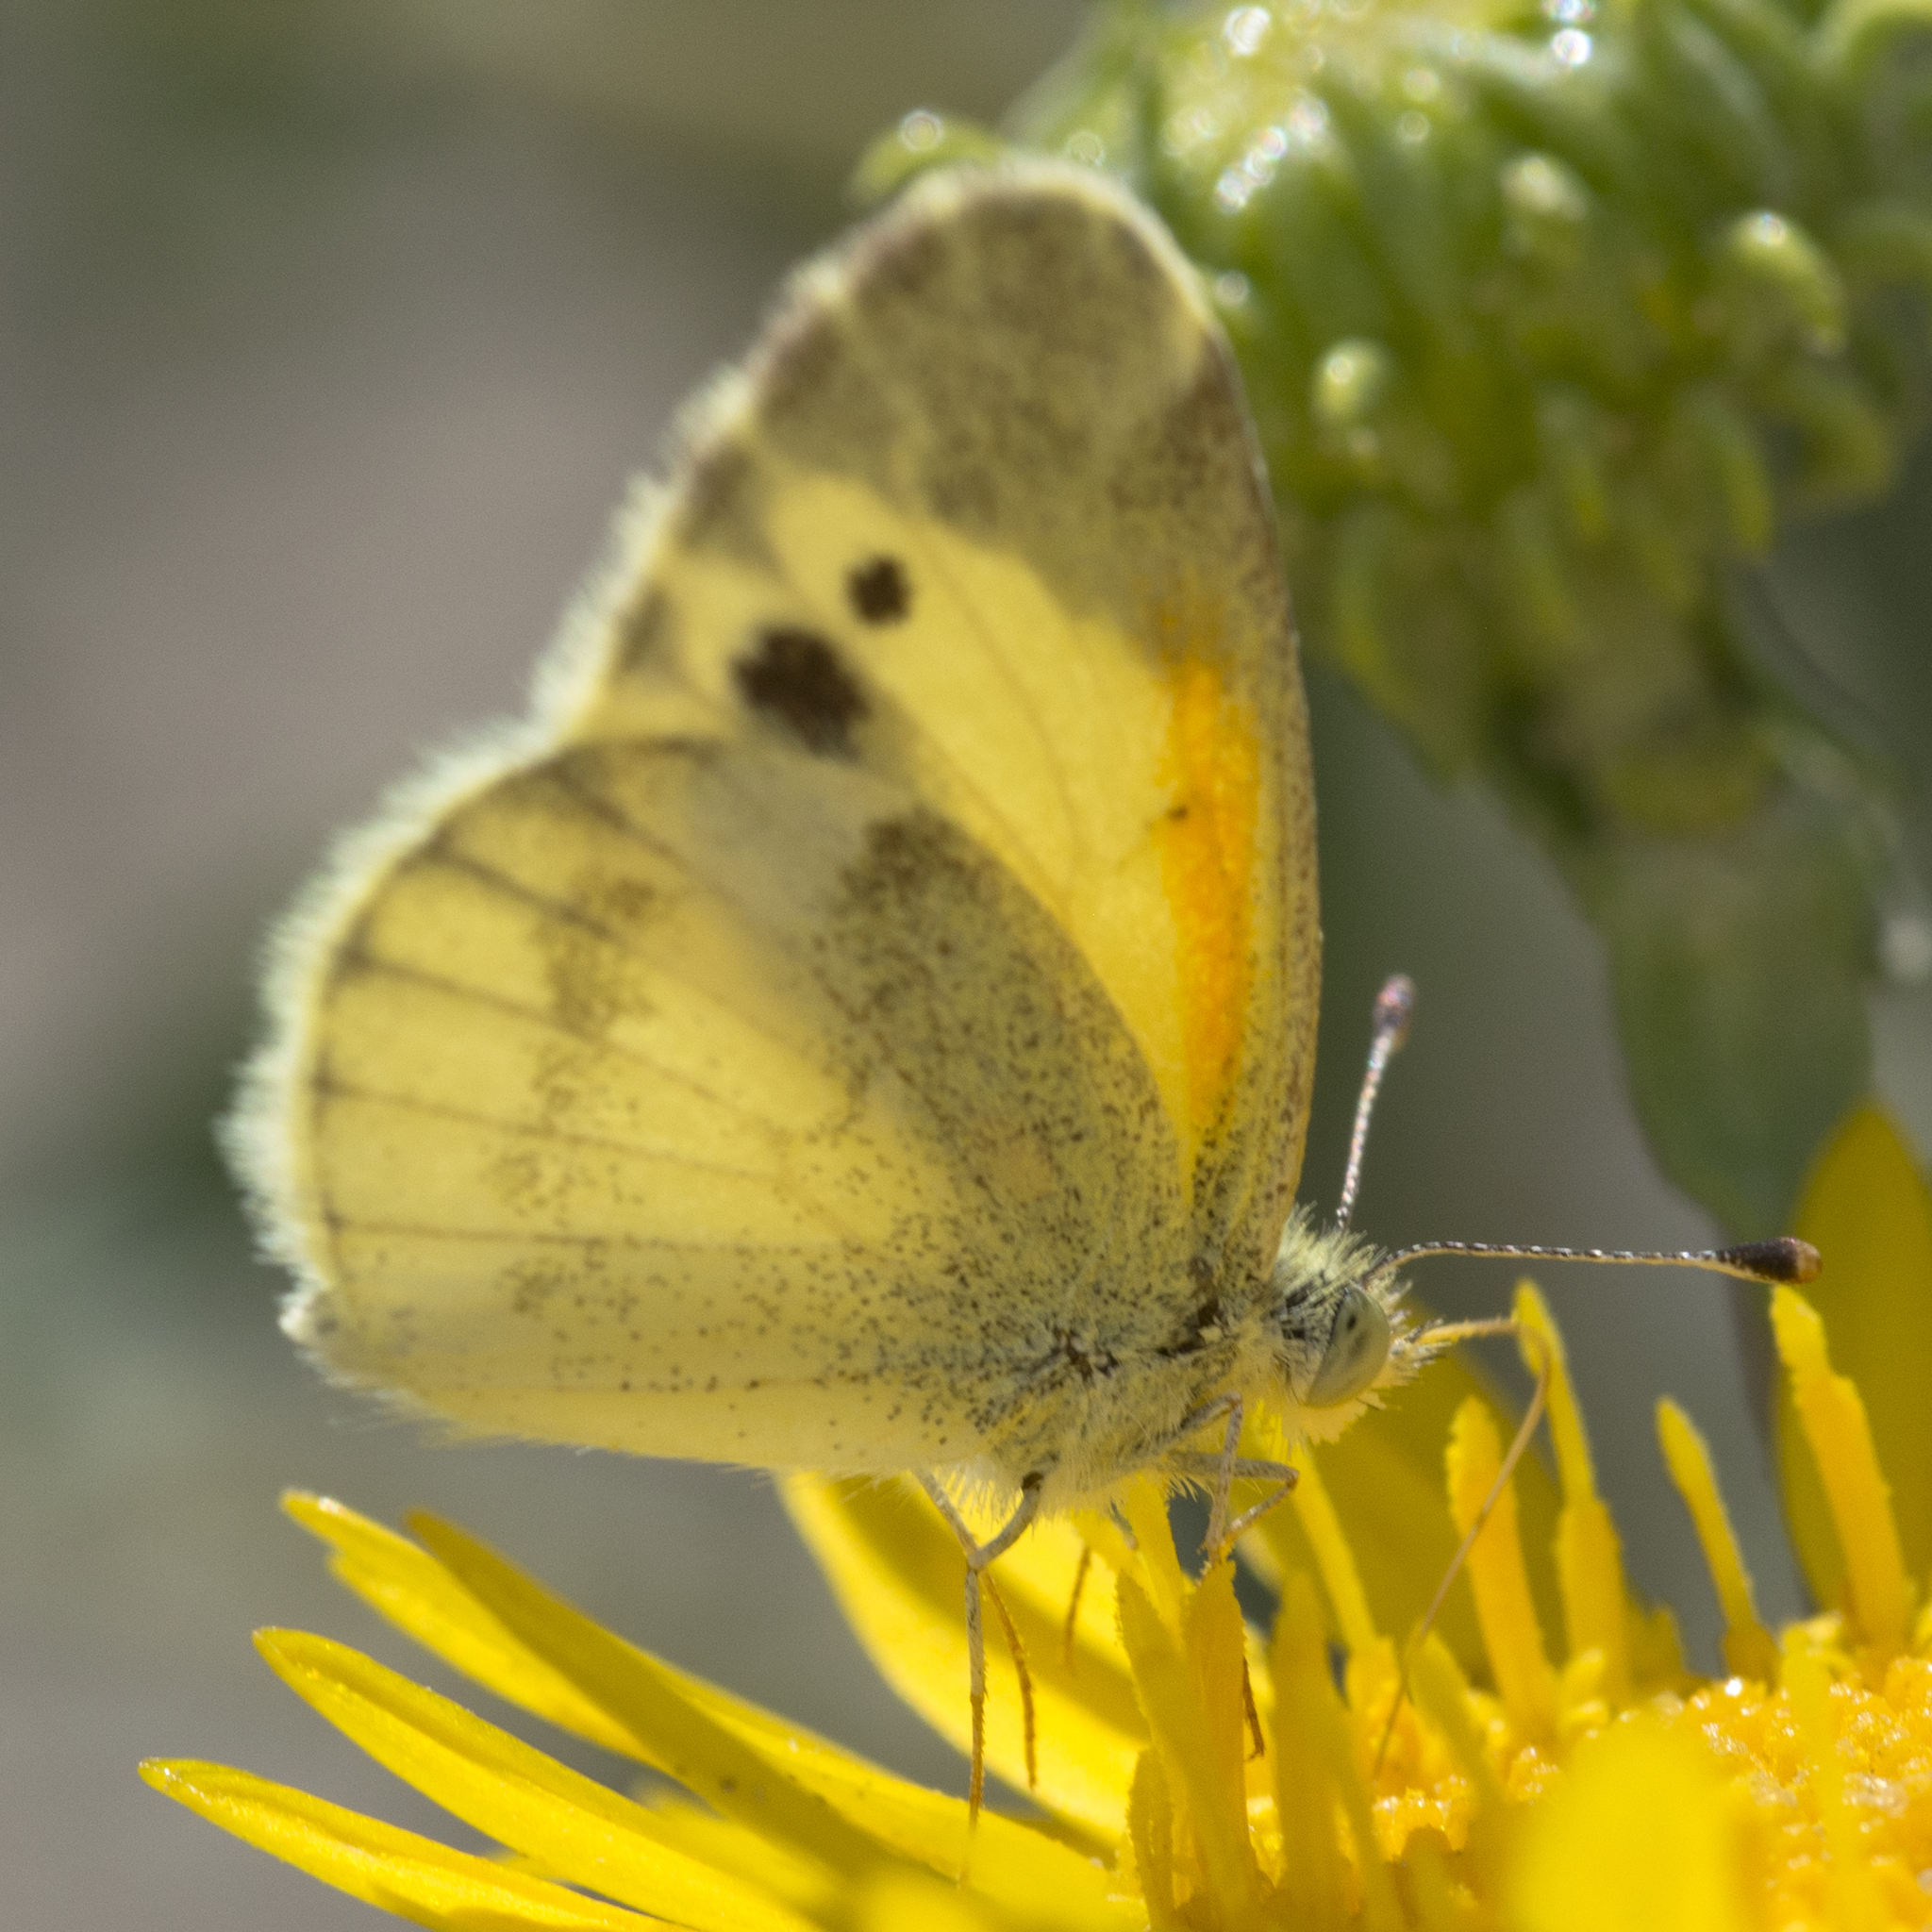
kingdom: Animalia
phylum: Arthropoda
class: Insecta
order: Lepidoptera
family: Pieridae
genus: Nathalis
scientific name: Nathalis iole
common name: Dainty sulphur
